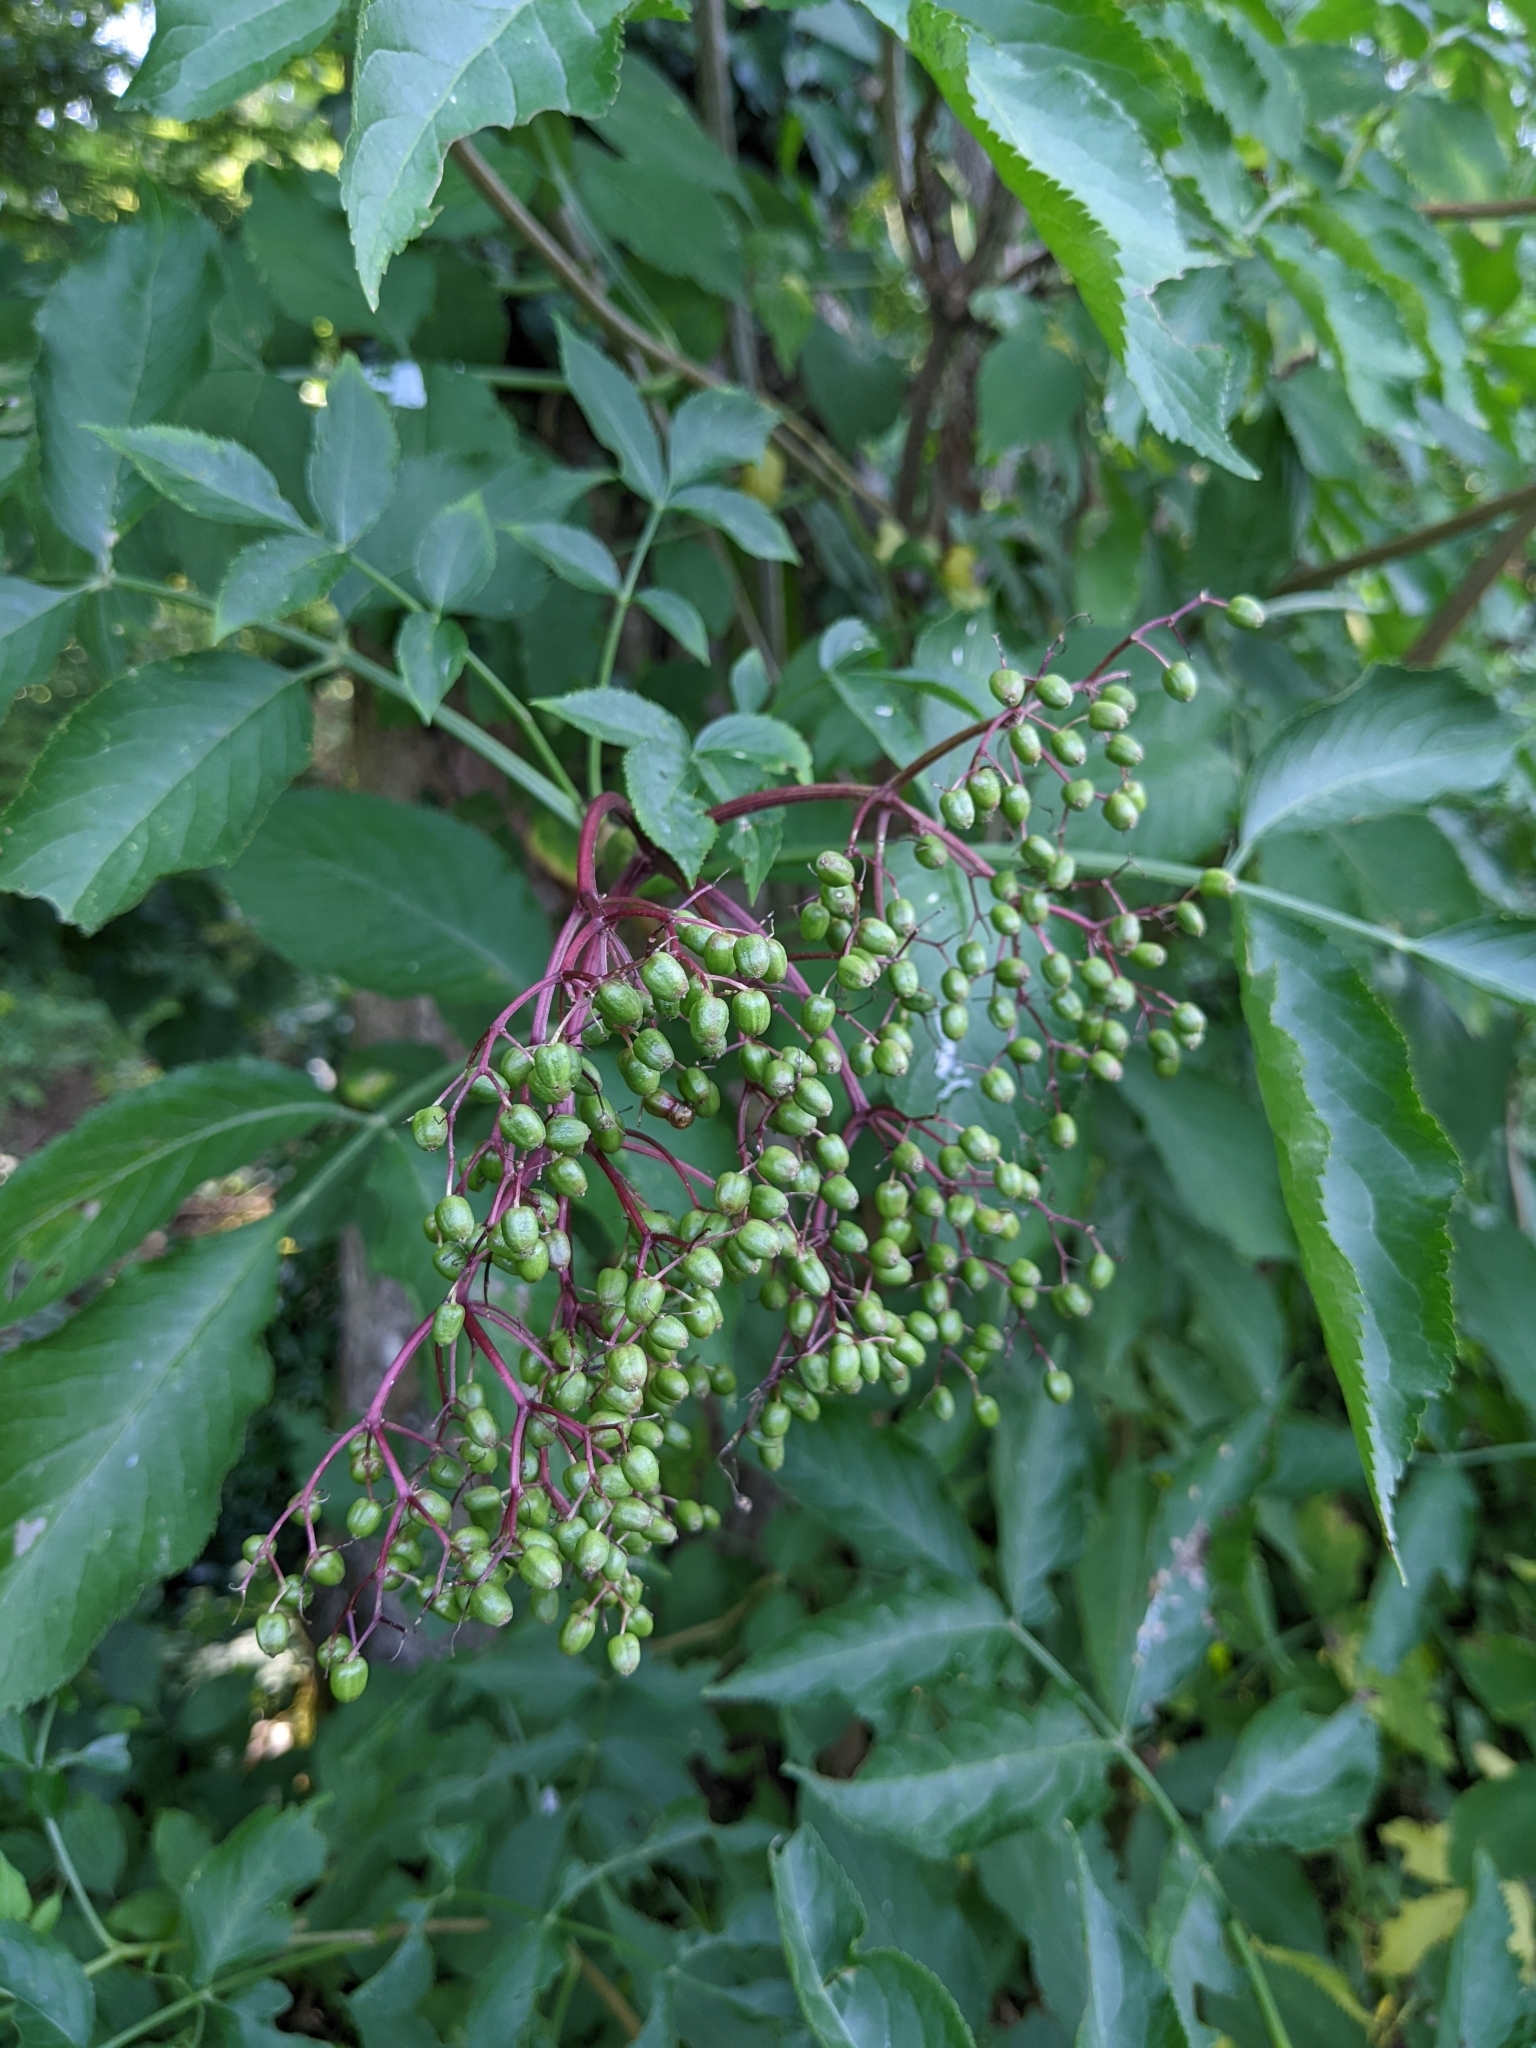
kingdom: Plantae
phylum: Tracheophyta
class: Magnoliopsida
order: Dipsacales
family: Viburnaceae
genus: Sambucus
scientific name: Sambucus nigra
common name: Elder
